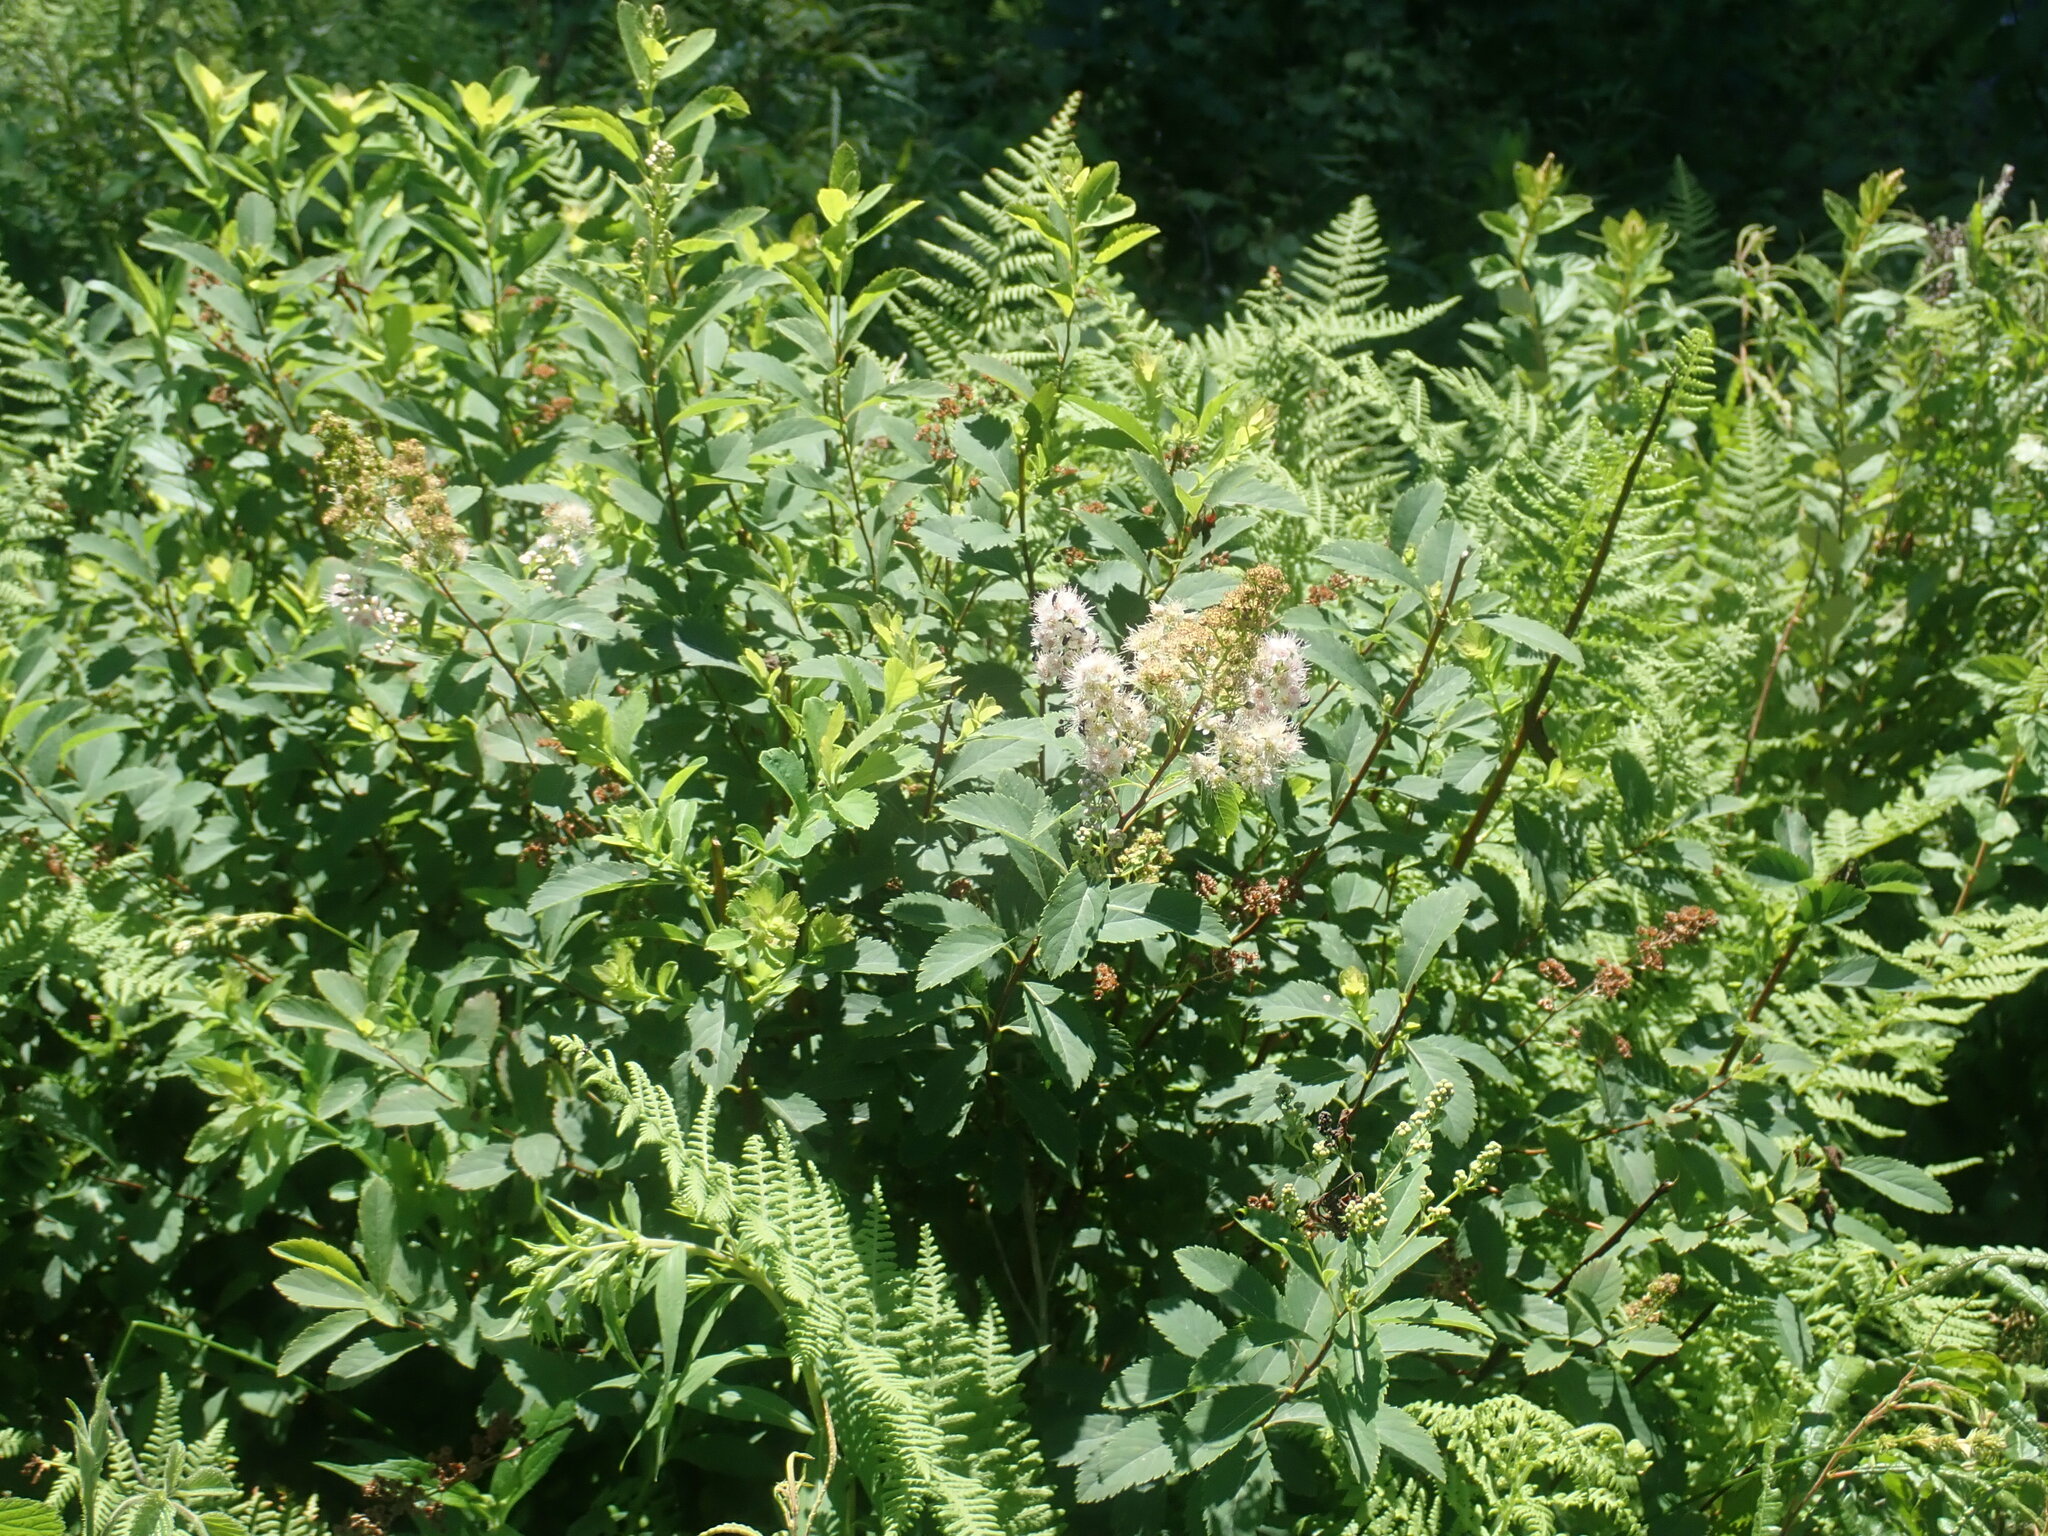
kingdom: Plantae
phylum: Tracheophyta
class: Magnoliopsida
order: Rosales
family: Rosaceae
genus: Spiraea
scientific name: Spiraea alba
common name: Pale bridewort
